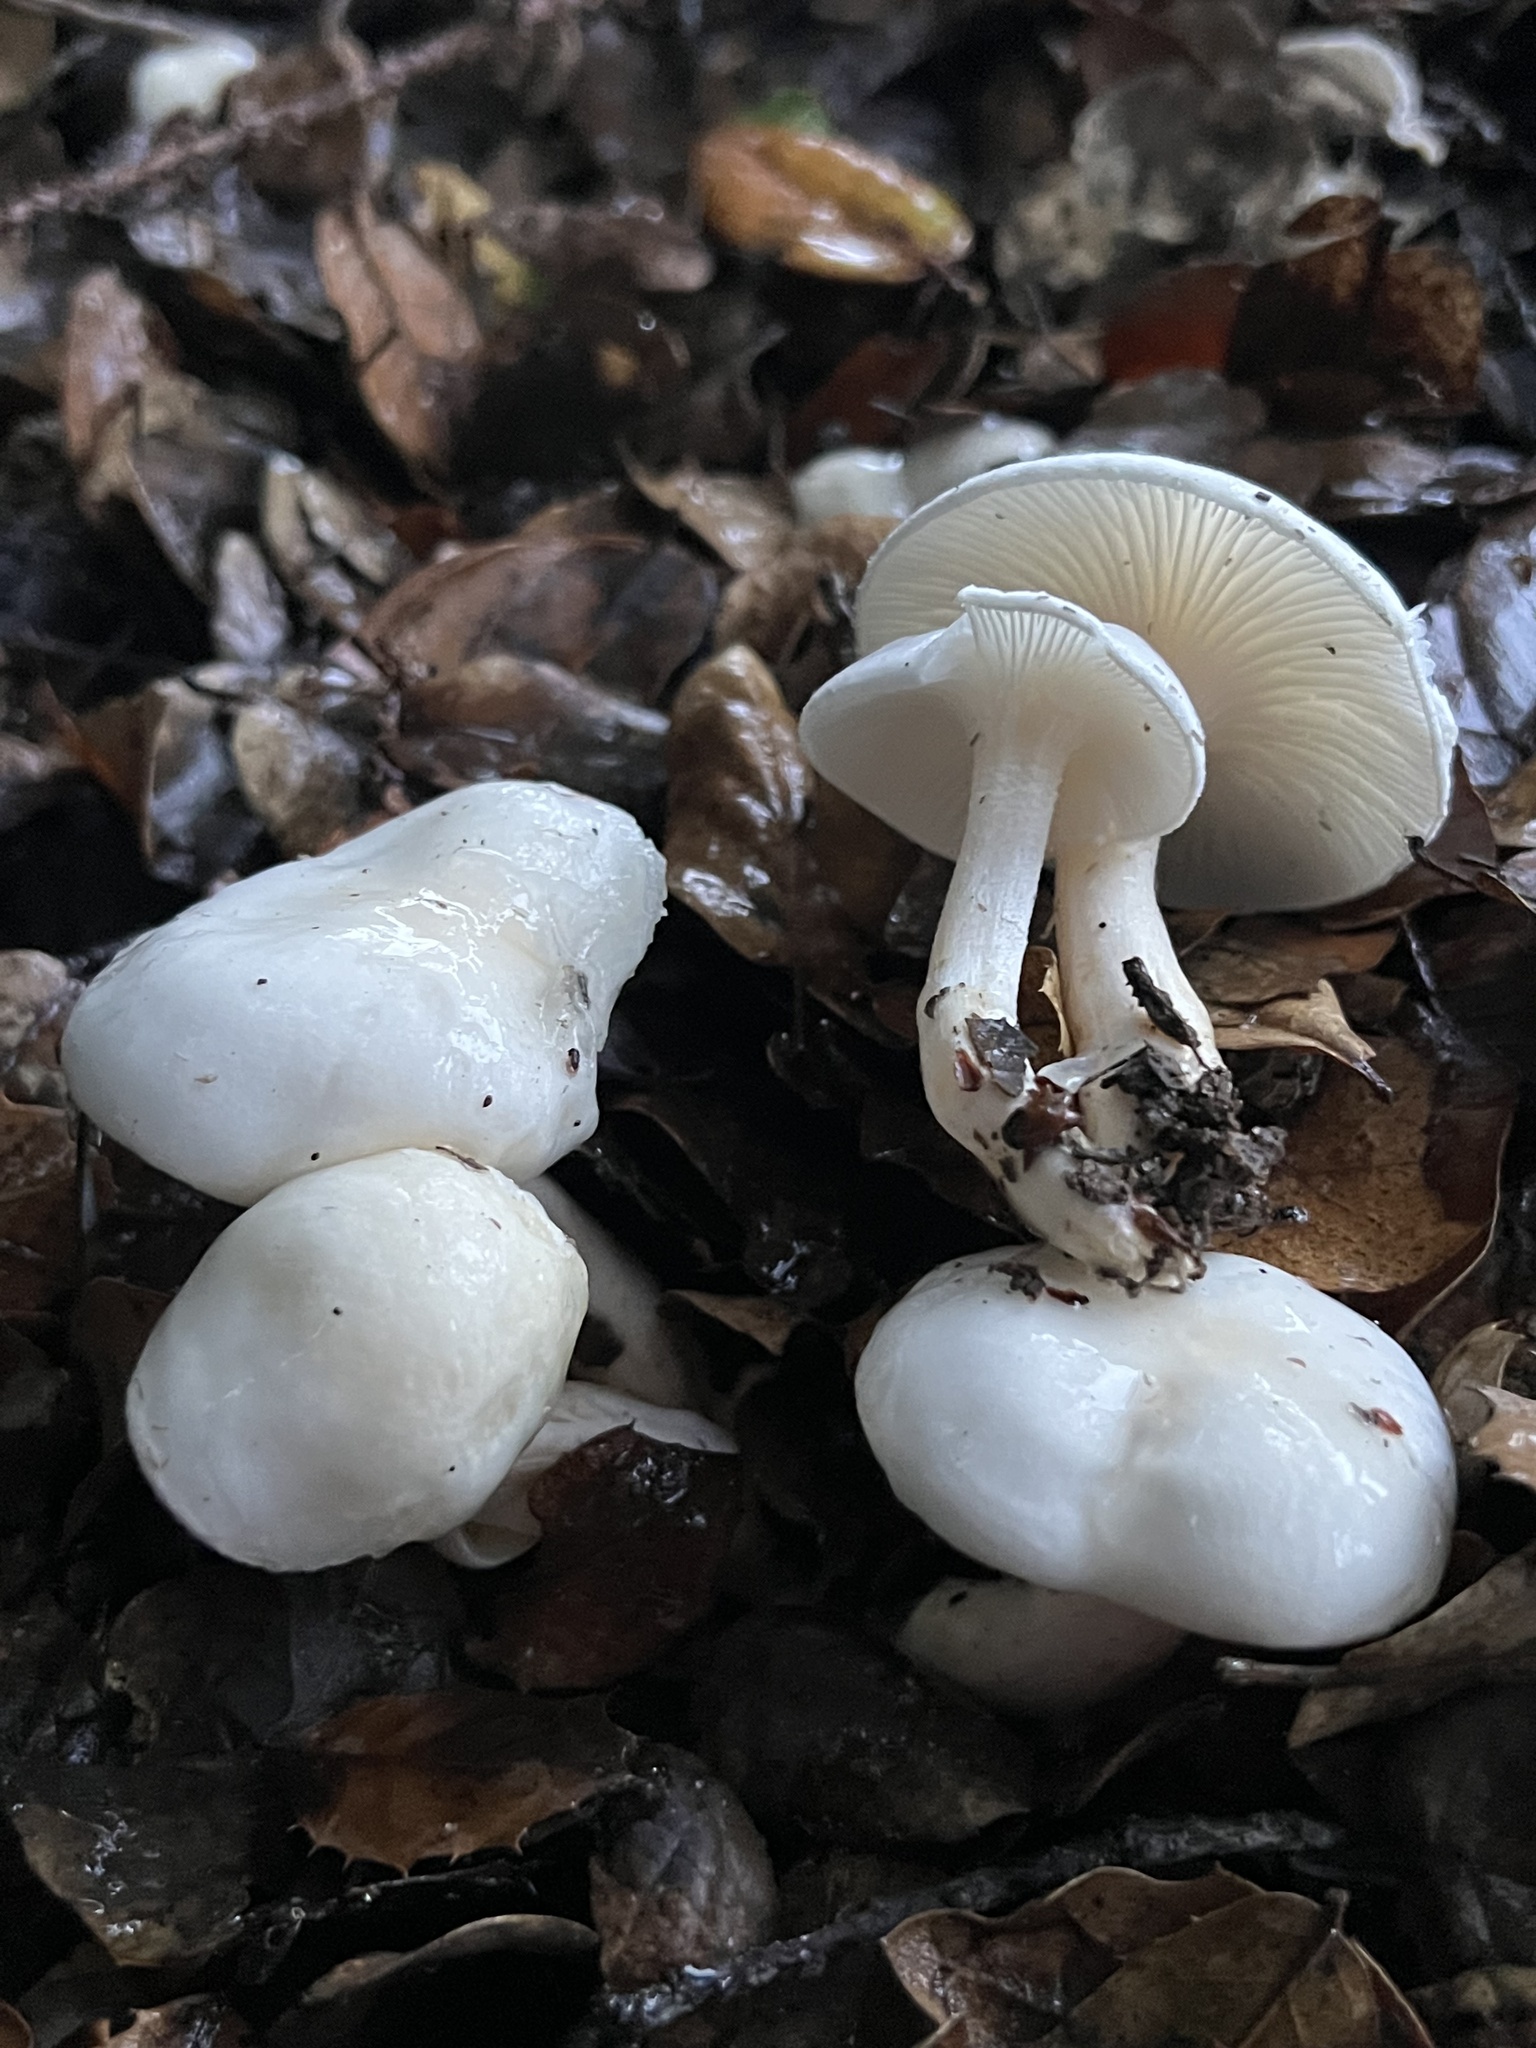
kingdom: Fungi
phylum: Basidiomycota
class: Agaricomycetes
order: Agaricales
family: Hygrophoraceae
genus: Hygrophorus
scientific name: Hygrophorus eburneus
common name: Ivory wax-cap
